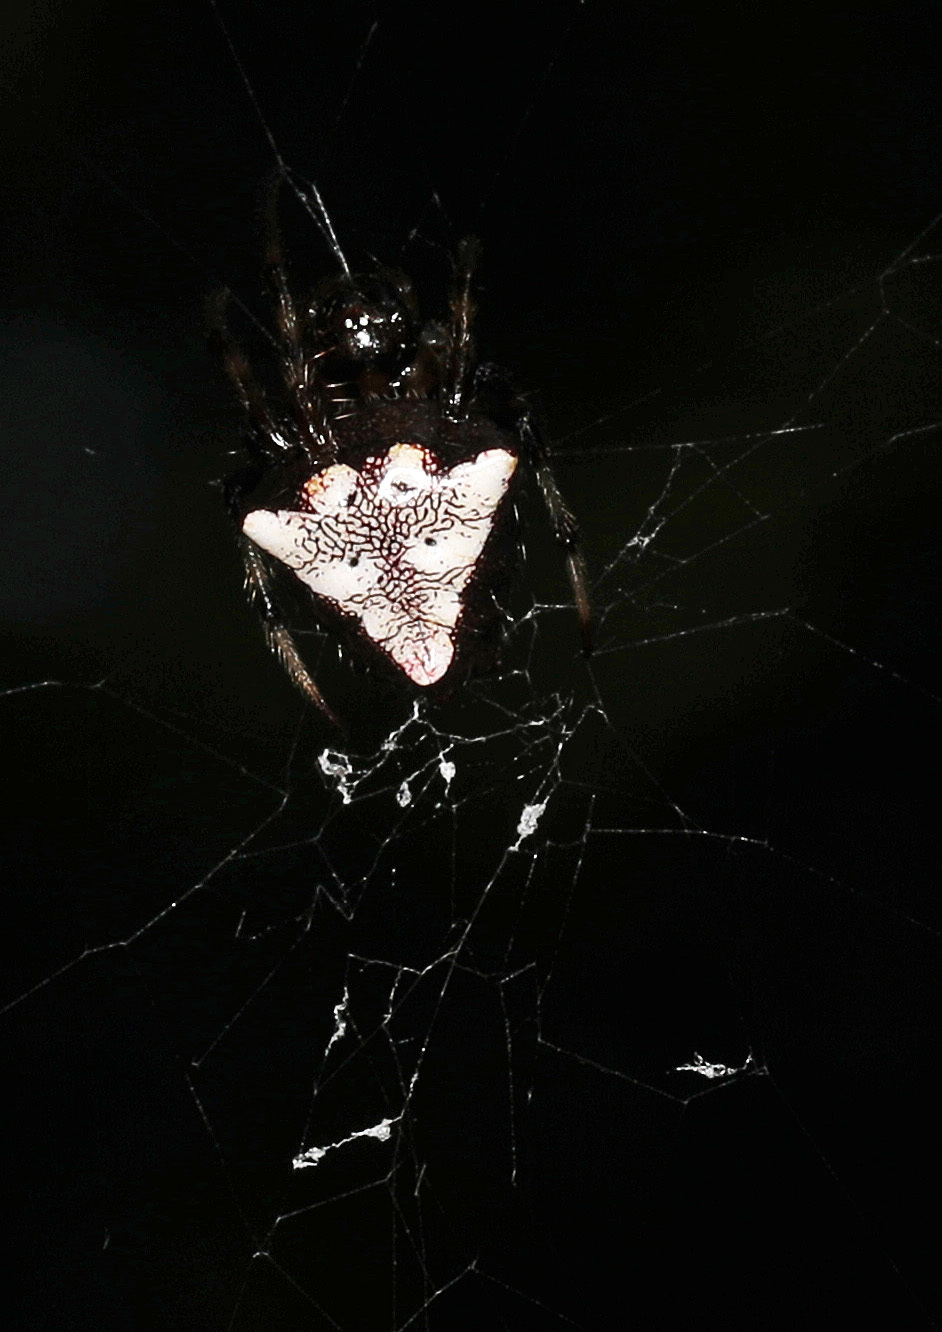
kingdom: Animalia
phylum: Arthropoda
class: Arachnida
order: Araneae
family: Araneidae
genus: Verrucosa
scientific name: Verrucosa arenata
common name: Orb weavers
